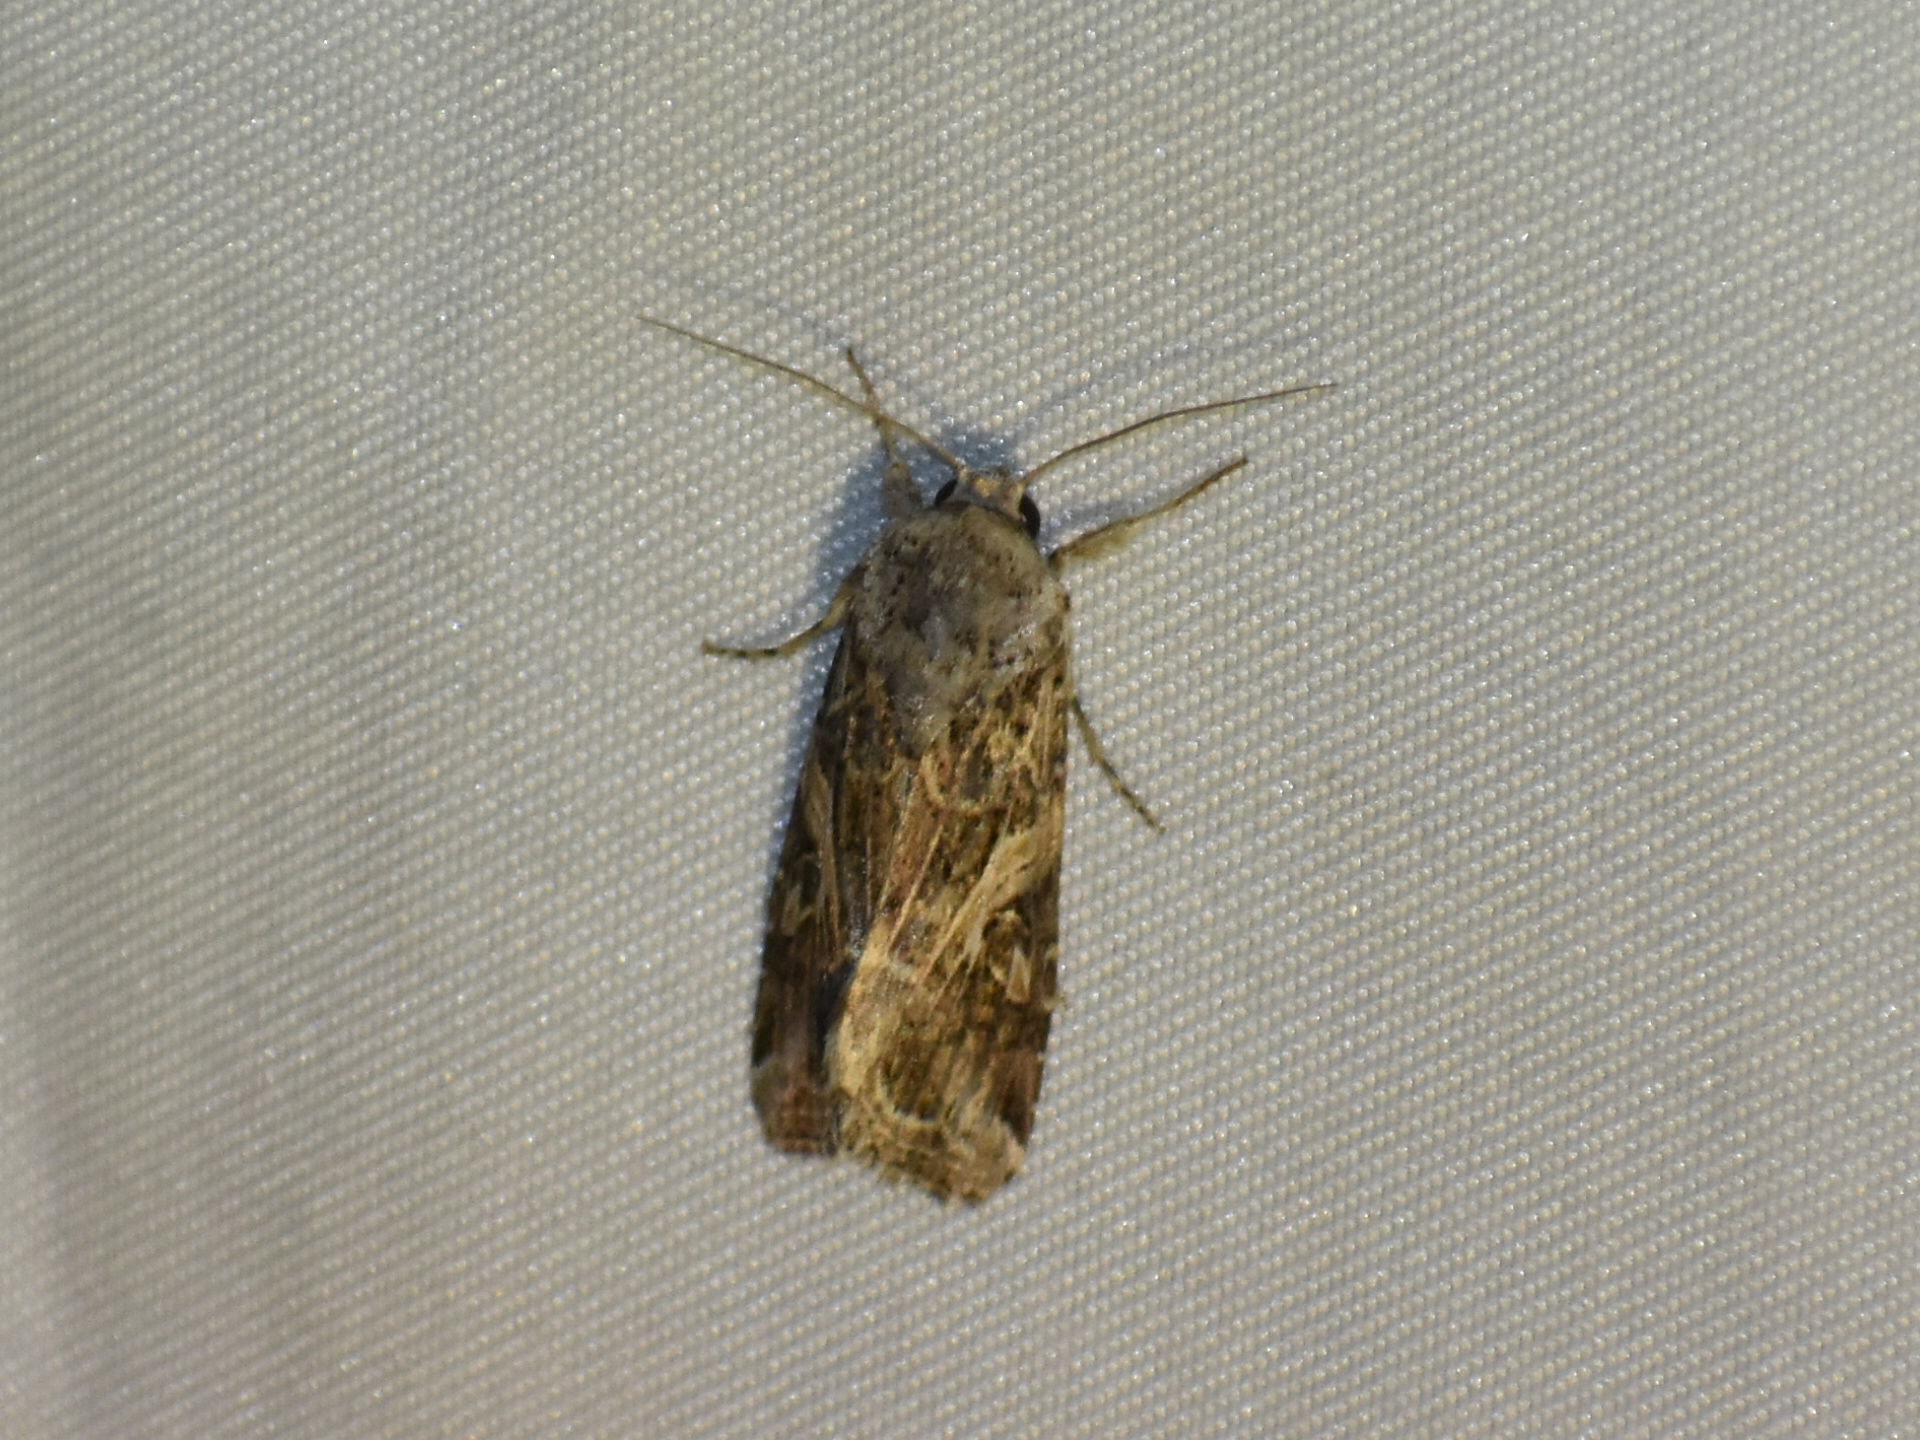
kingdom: Animalia
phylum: Arthropoda
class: Insecta
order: Lepidoptera
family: Noctuidae
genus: Spodoptera
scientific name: Spodoptera ornithogalli
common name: Yellow-striped armyworm
